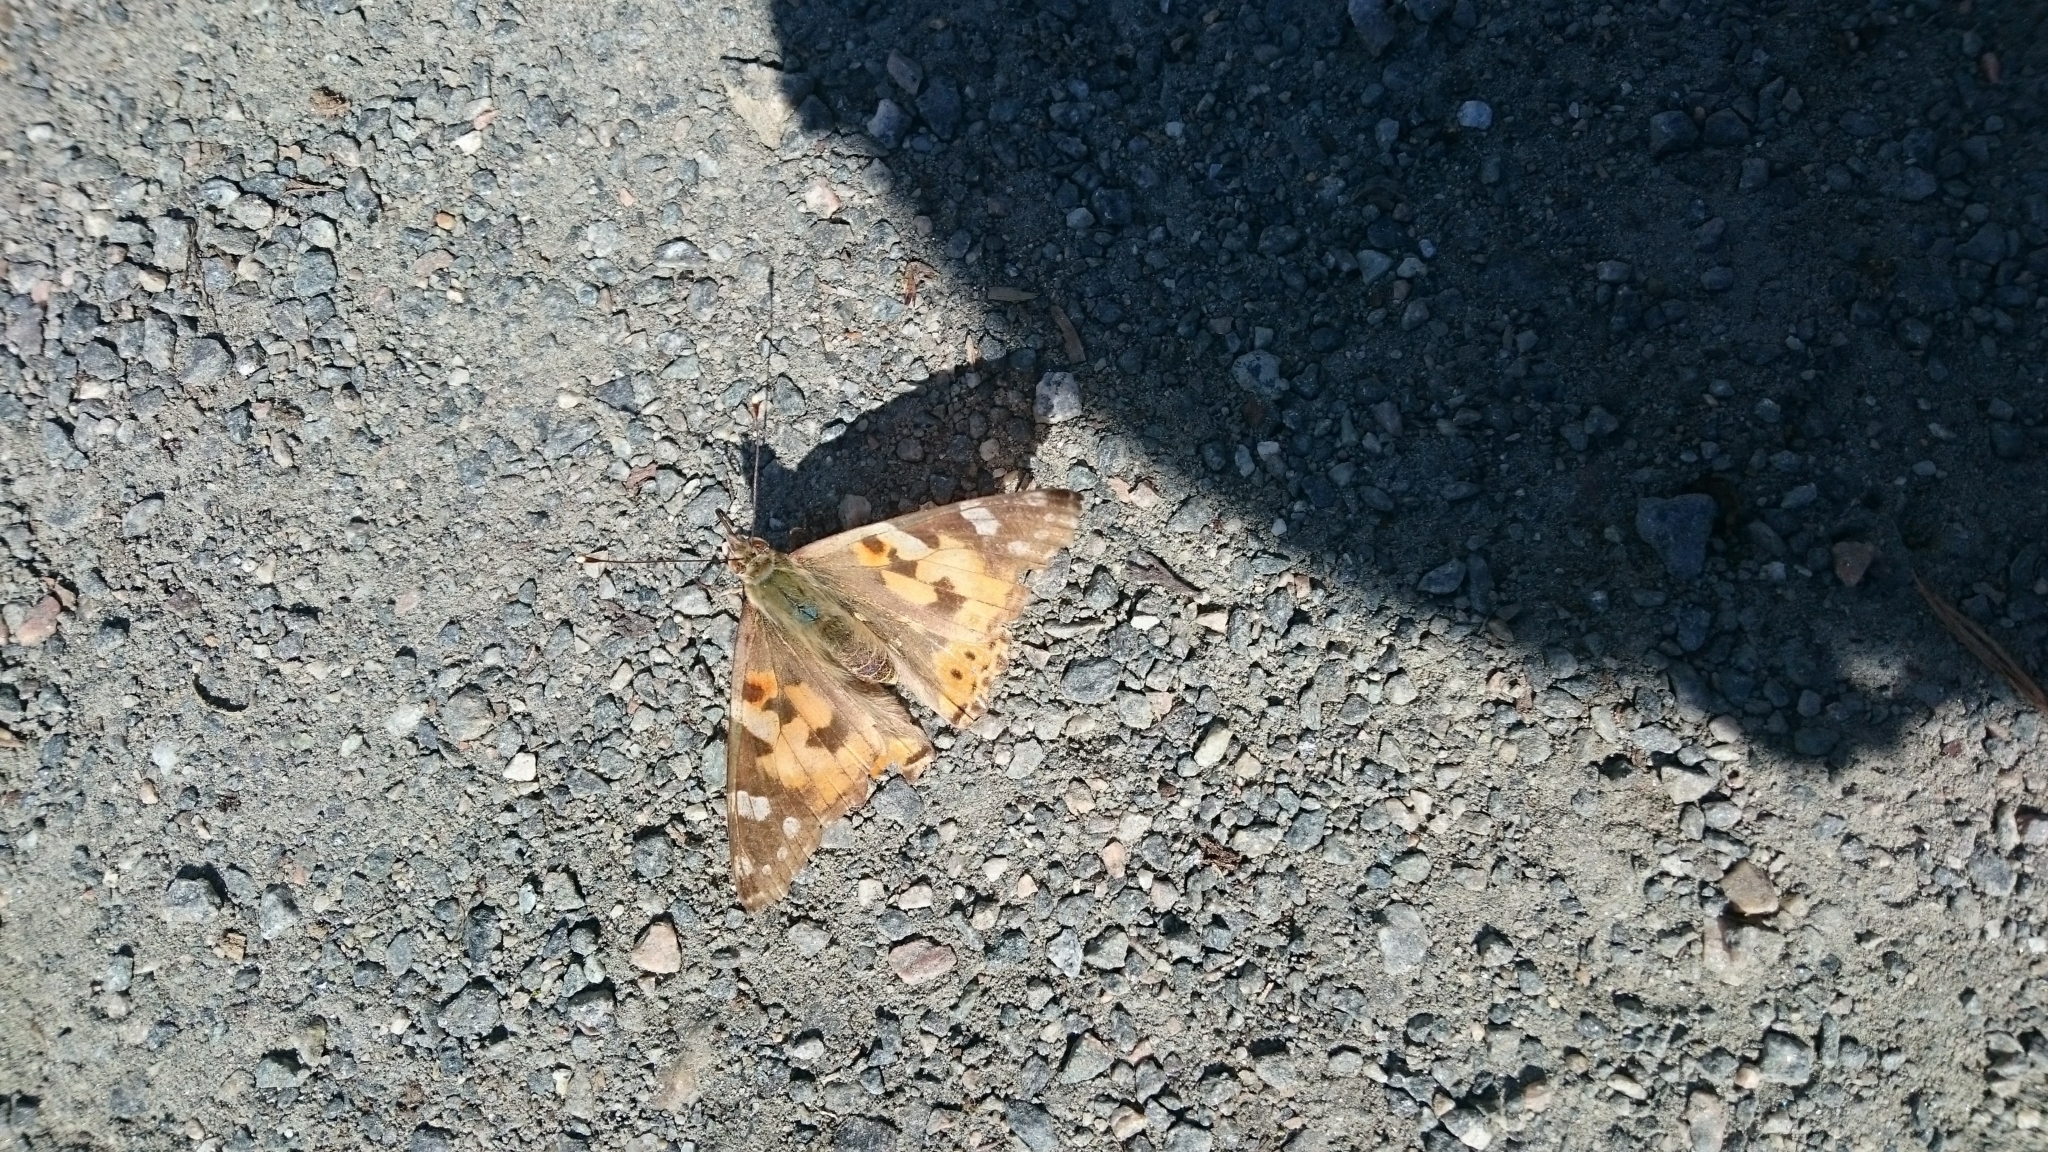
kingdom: Animalia
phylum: Arthropoda
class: Insecta
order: Lepidoptera
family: Nymphalidae
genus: Vanessa
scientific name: Vanessa cardui
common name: Painted lady
